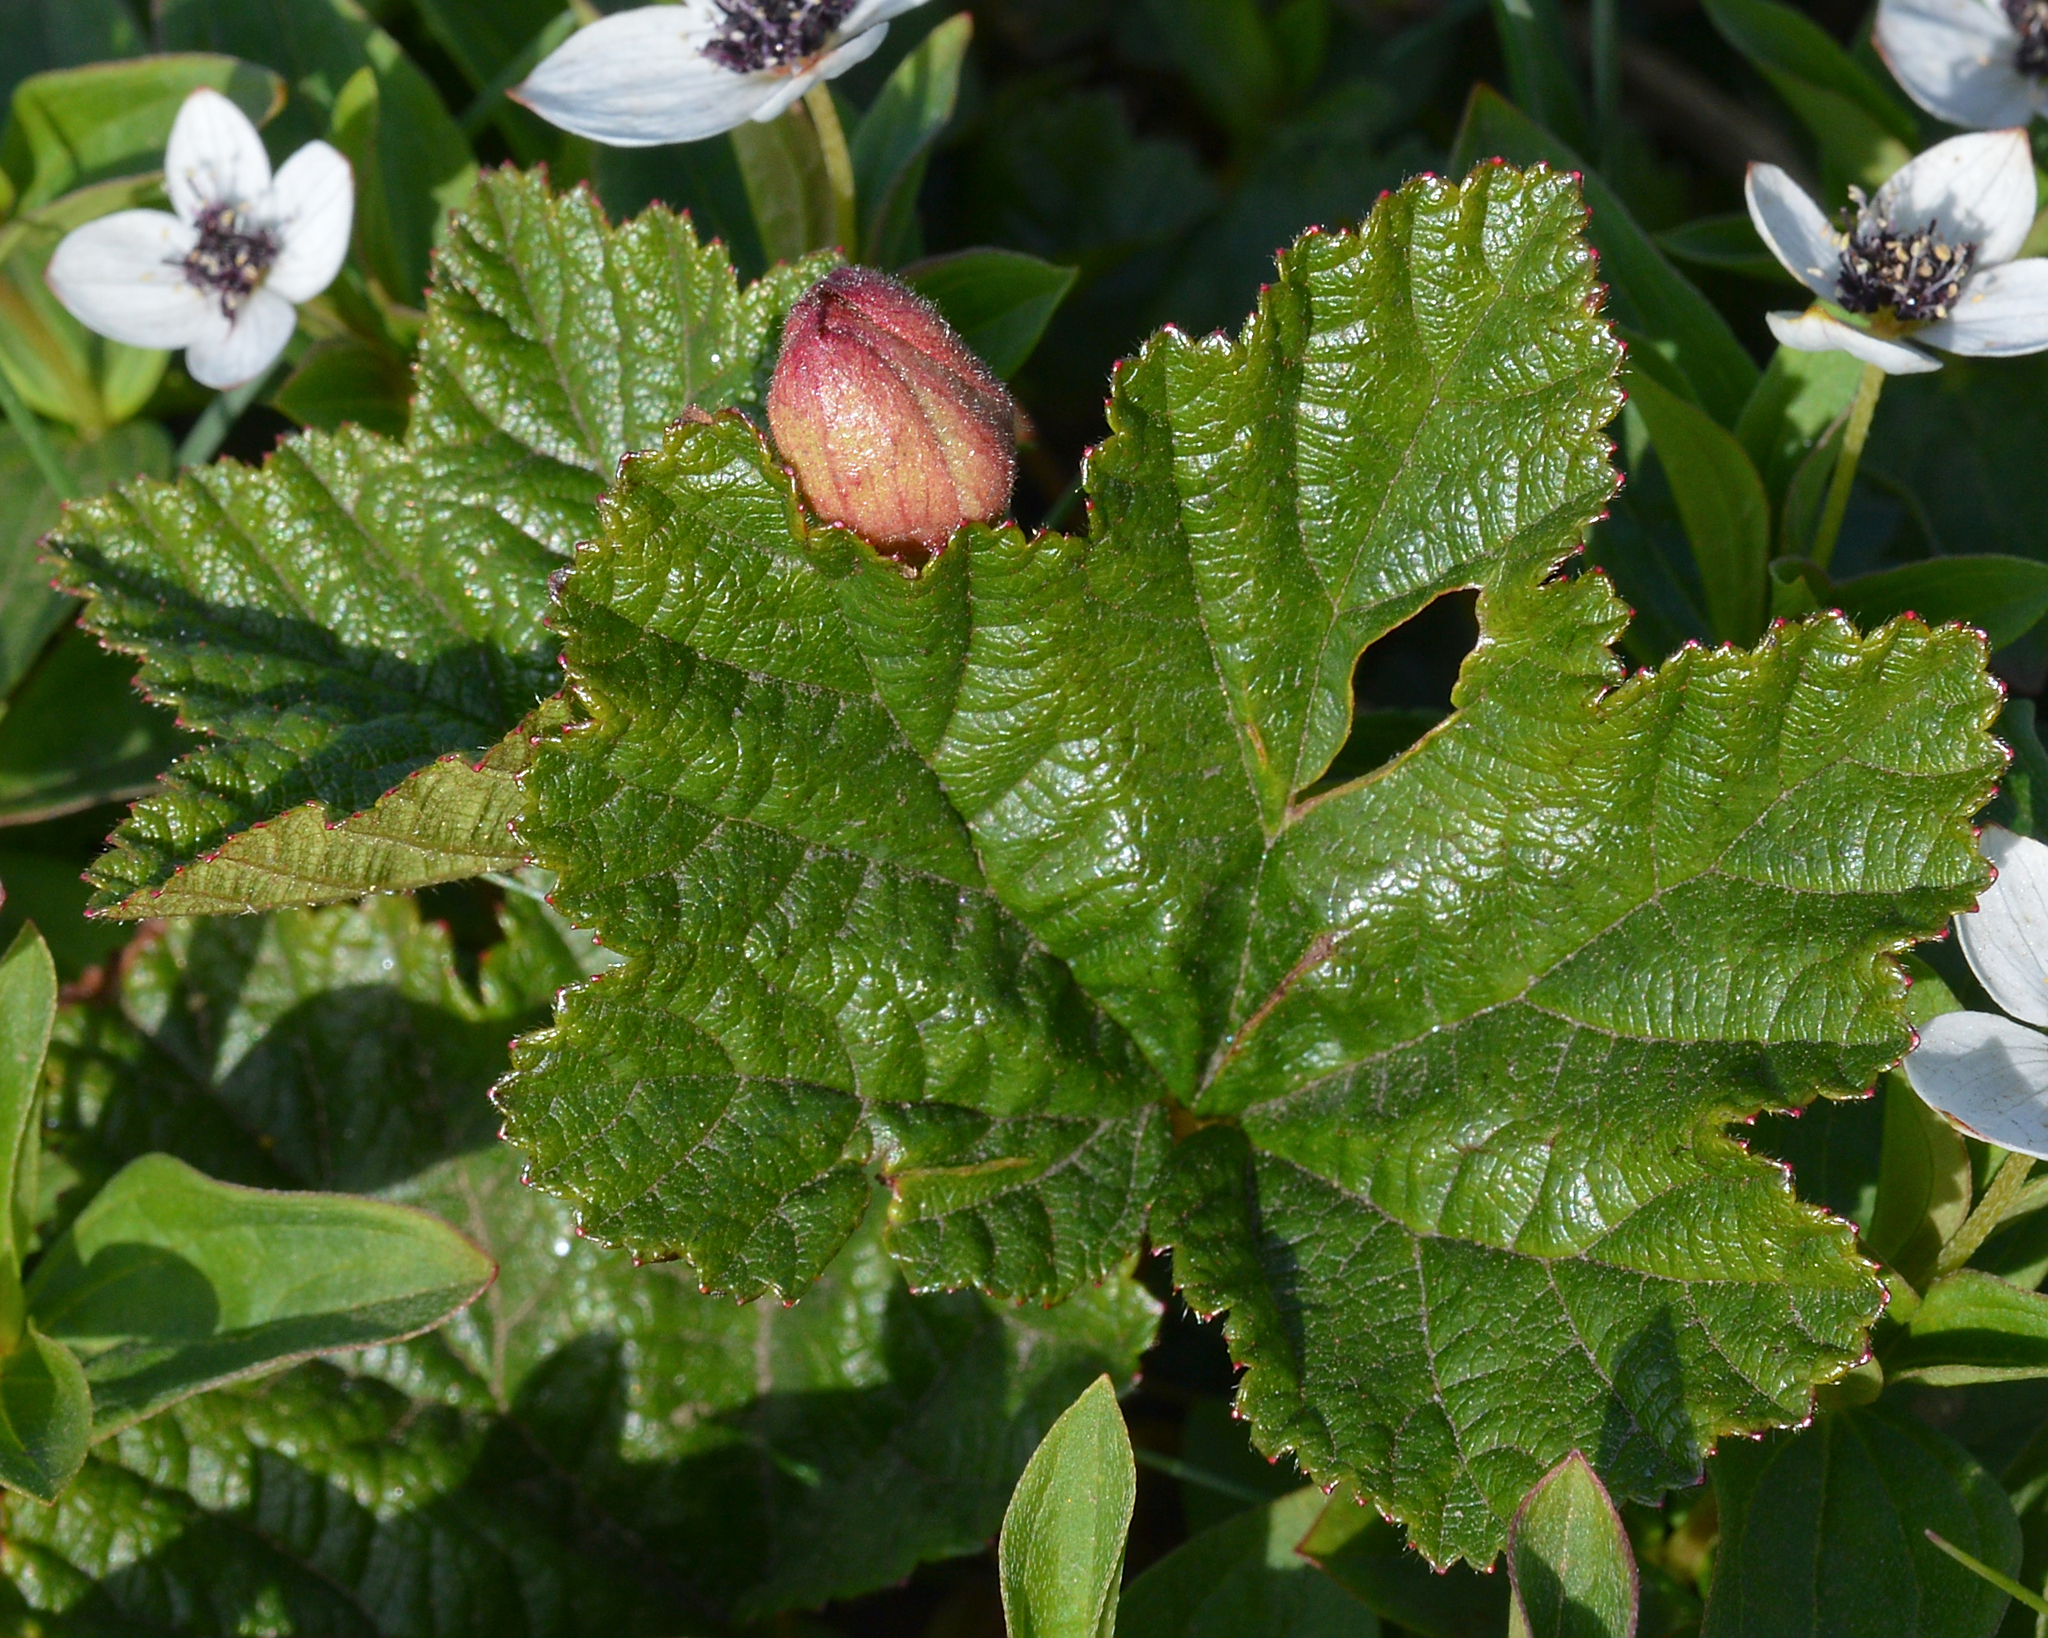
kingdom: Plantae
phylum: Tracheophyta
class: Magnoliopsida
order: Rosales
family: Rosaceae
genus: Rubus
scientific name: Rubus chamaemorus
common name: Cloudberry
